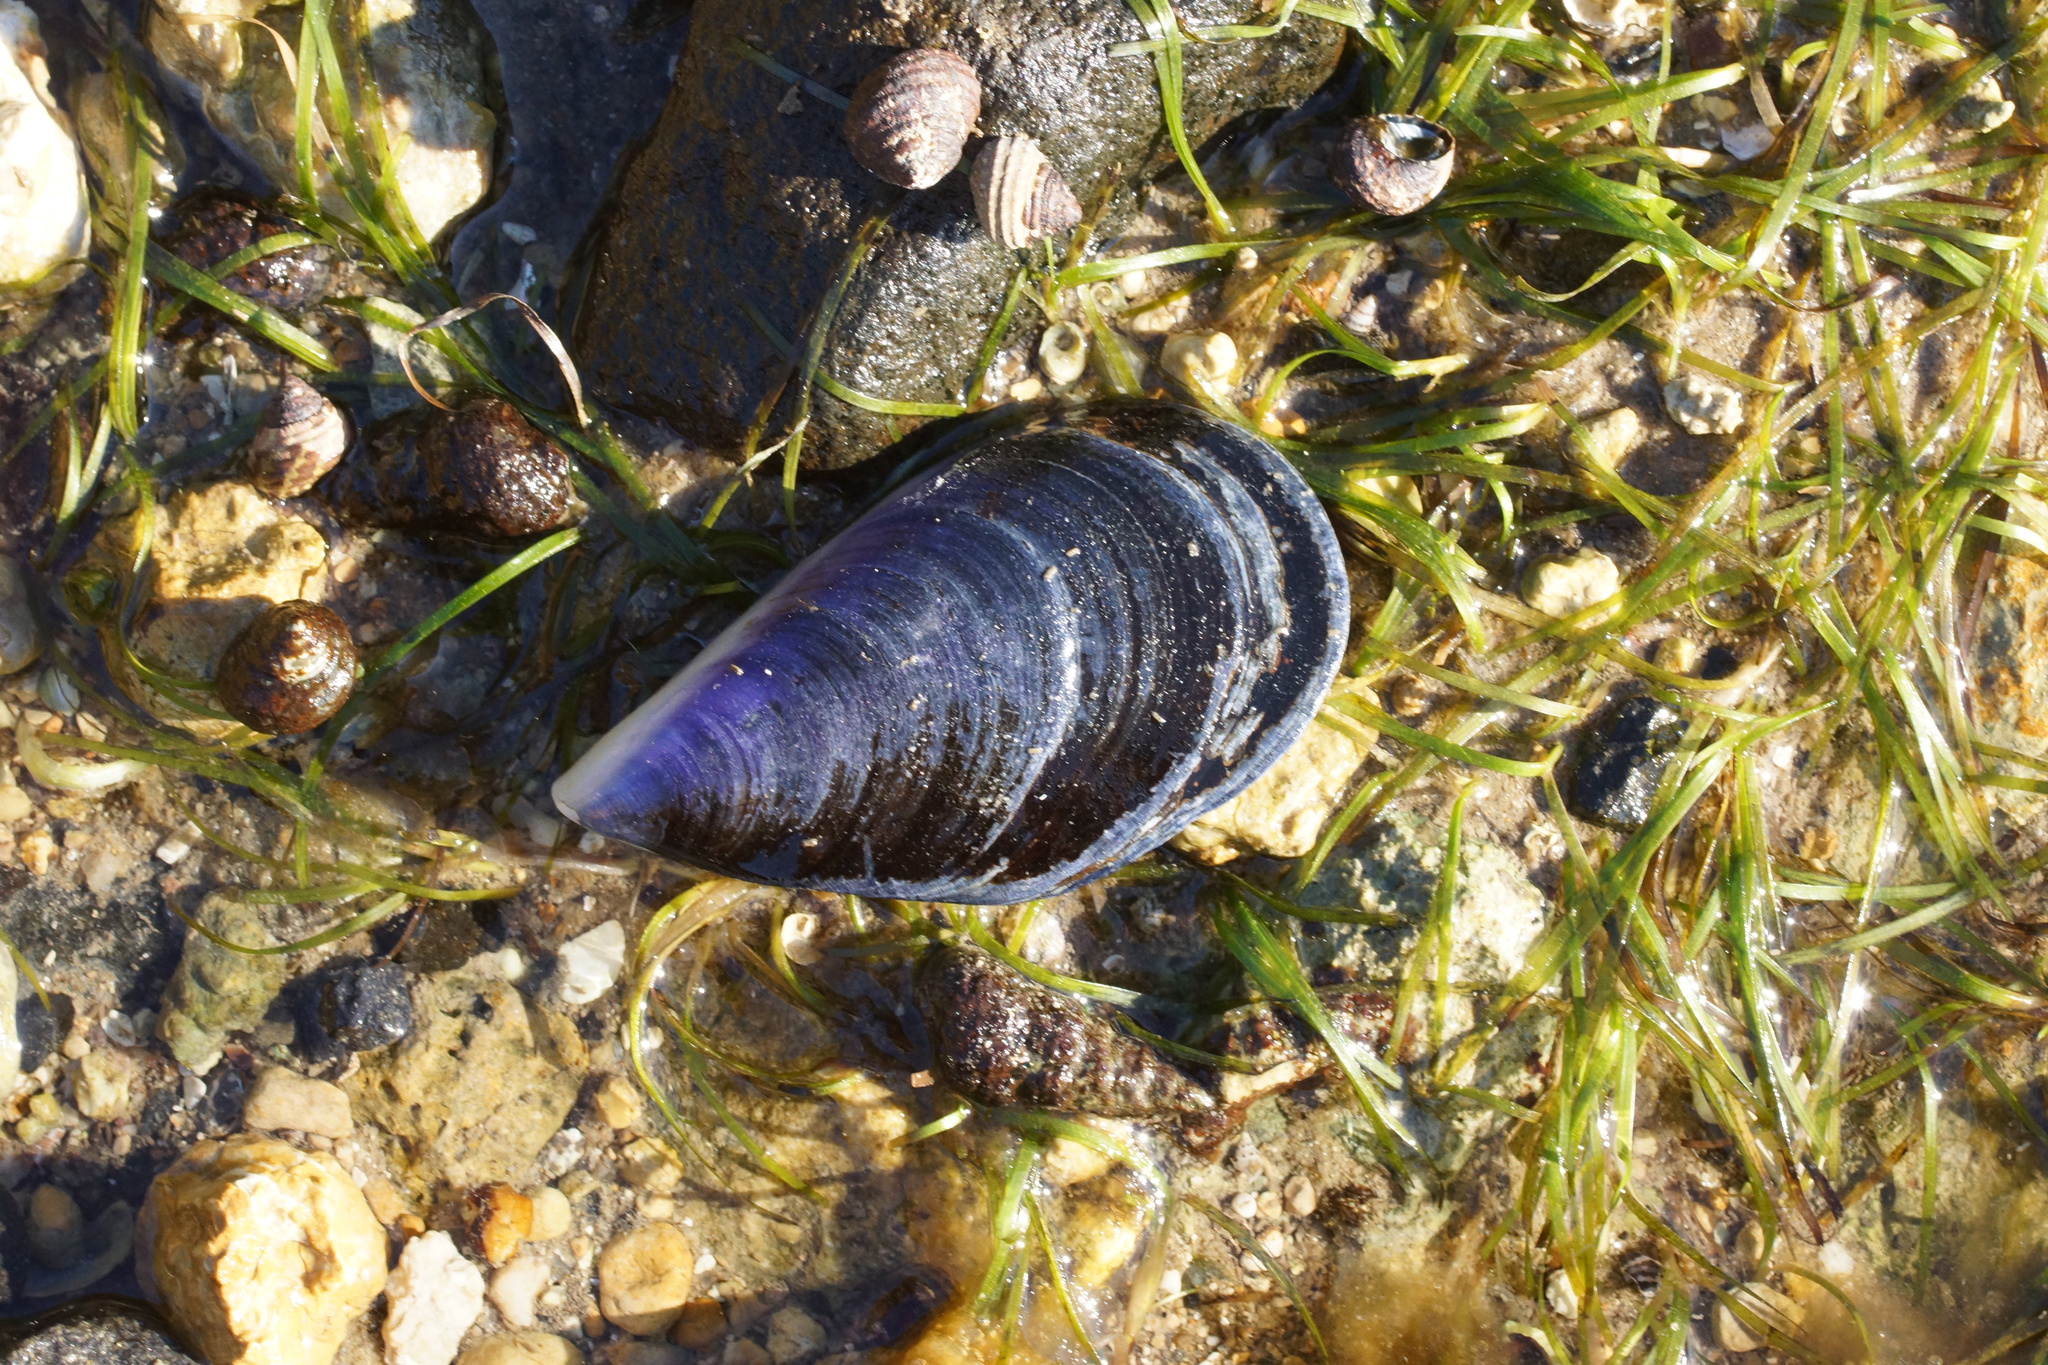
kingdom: Animalia
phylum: Mollusca
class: Bivalvia
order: Mytilida
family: Mytilidae
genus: Mytilus
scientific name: Mytilus
